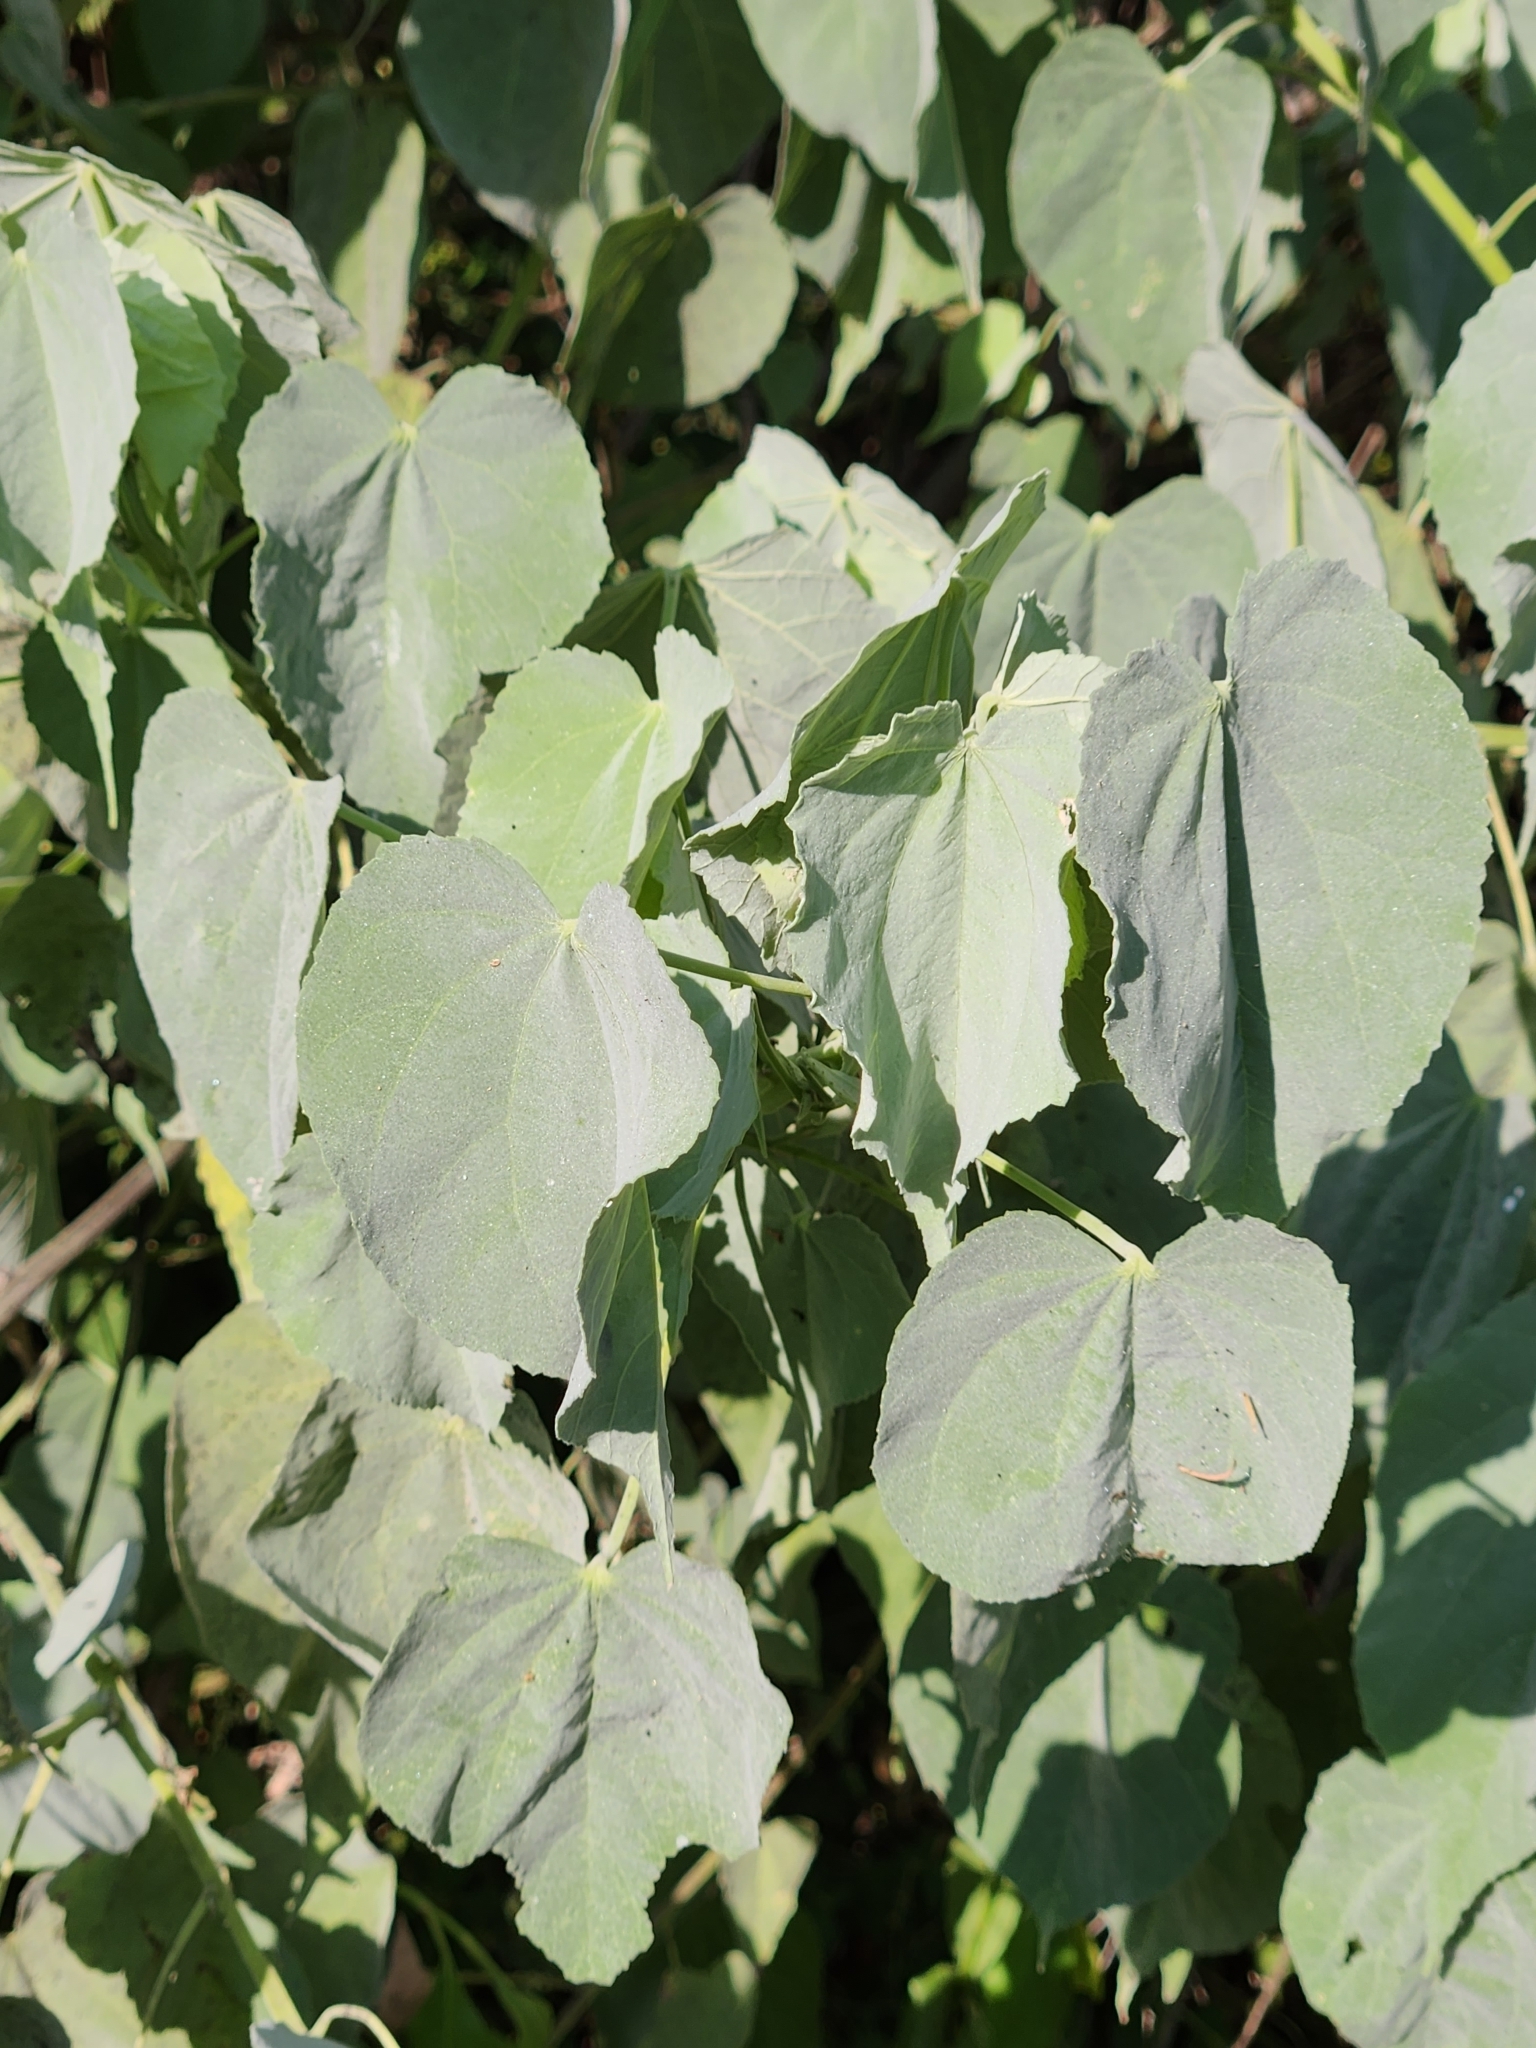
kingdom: Plantae
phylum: Tracheophyta
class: Magnoliopsida
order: Malvales
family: Malvaceae
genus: Abutilon
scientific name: Abutilon trisulcatum
